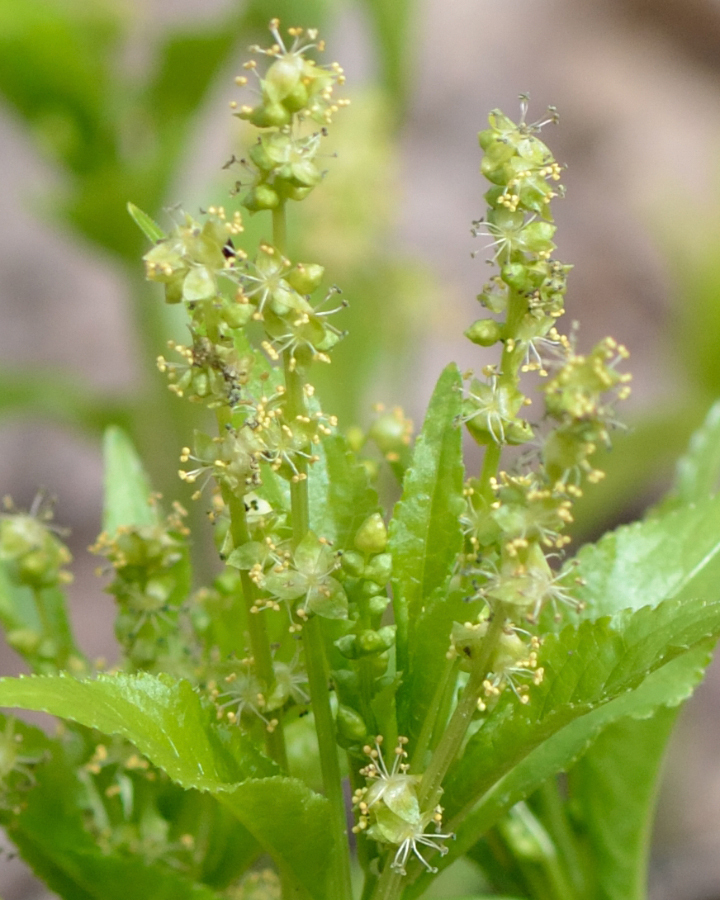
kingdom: Plantae
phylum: Tracheophyta
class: Magnoliopsida
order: Malpighiales
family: Euphorbiaceae
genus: Mercurialis
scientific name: Mercurialis perennis
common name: Dog mercury
